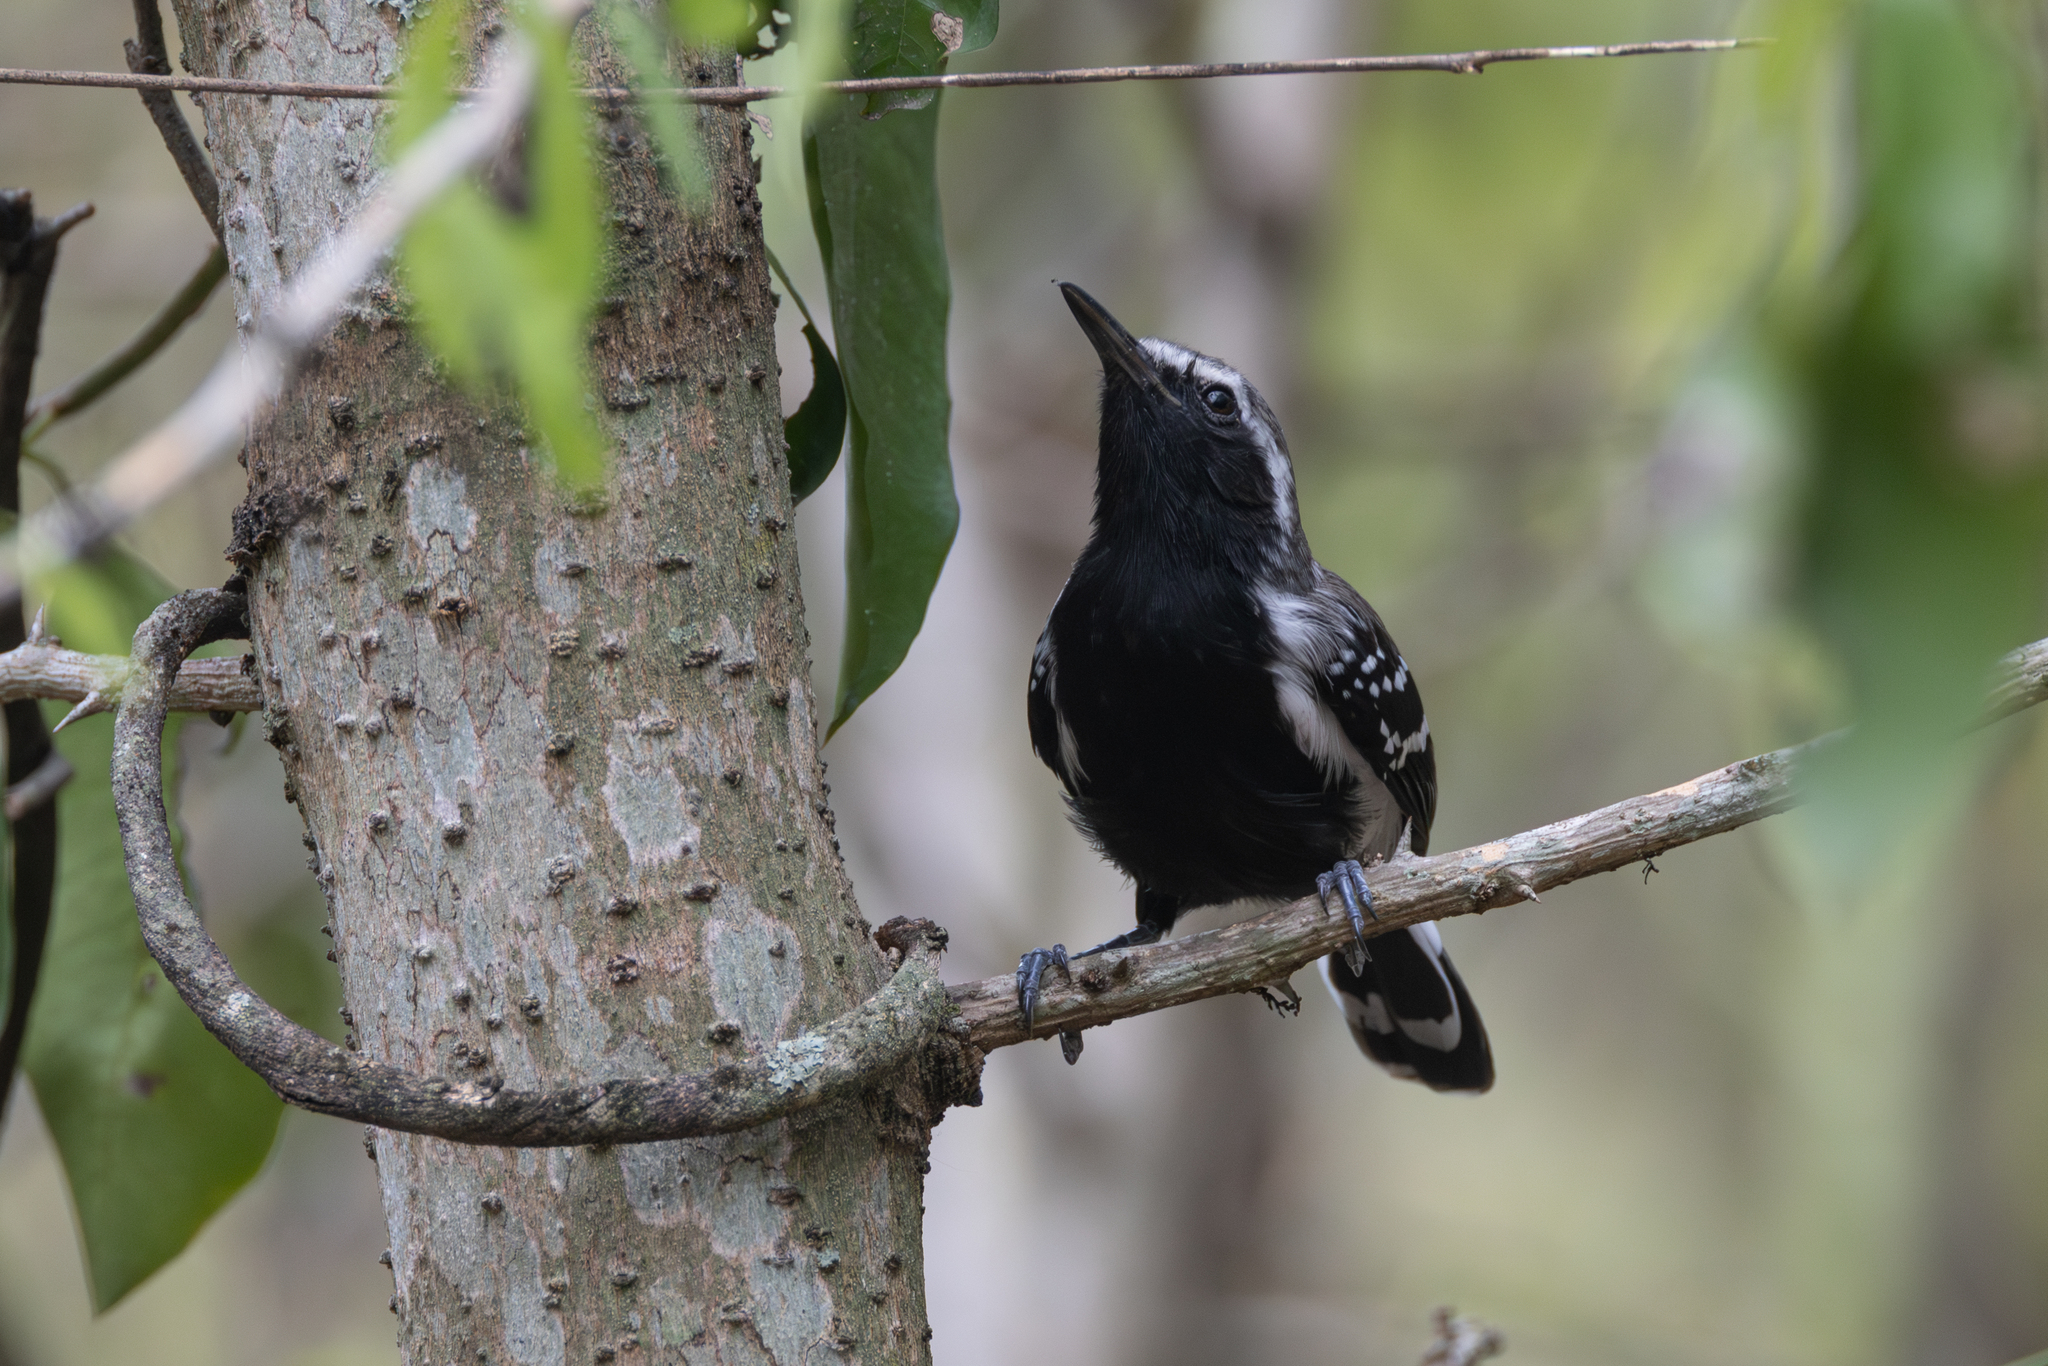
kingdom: Animalia
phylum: Chordata
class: Aves
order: Passeriformes
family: Thamnophilidae
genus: Formicivora
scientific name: Formicivora intermedia
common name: Northern white-fringed antwren
